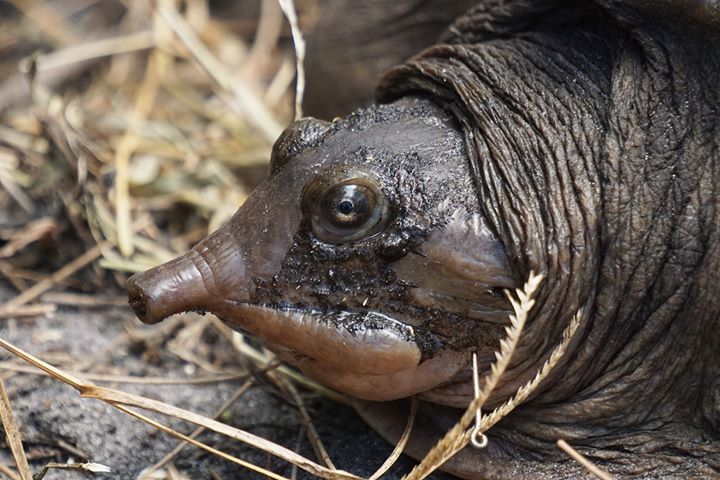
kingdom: Animalia
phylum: Chordata
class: Testudines
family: Trionychidae
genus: Apalone
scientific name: Apalone ferox
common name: Florida softshell turtle
